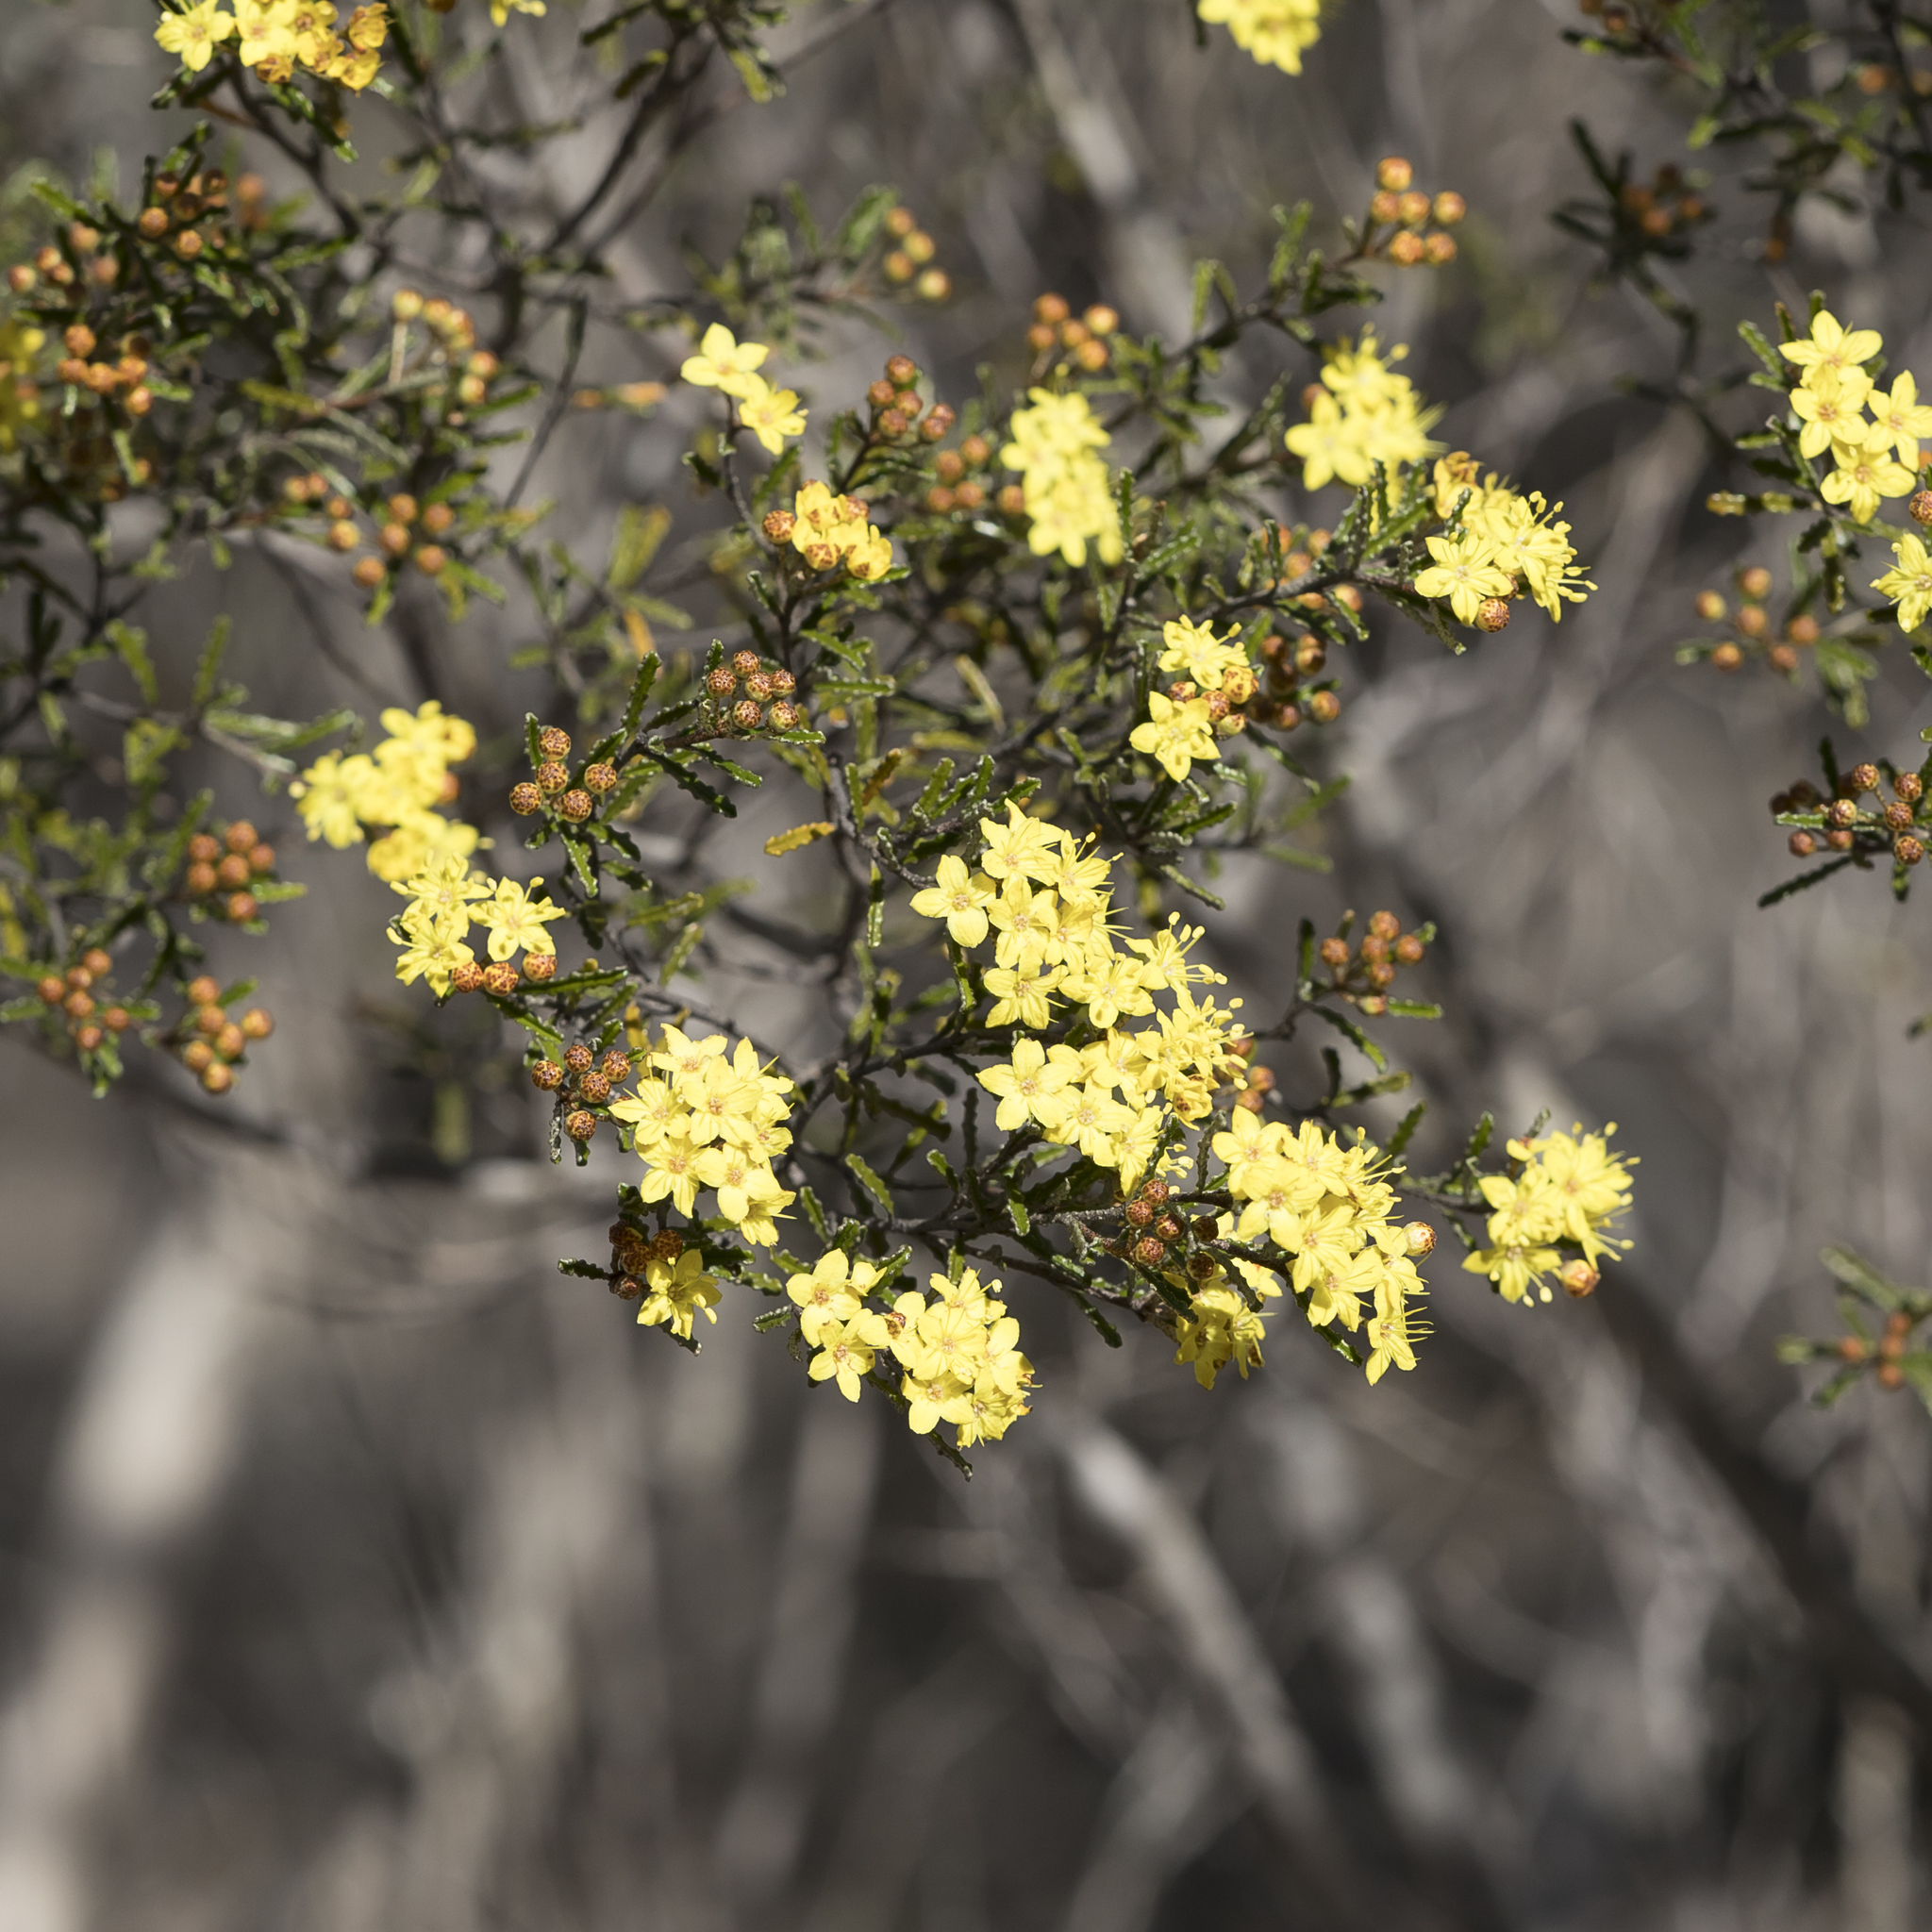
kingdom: Plantae
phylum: Tracheophyta
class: Magnoliopsida
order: Sapindales
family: Rutaceae
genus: Phebalium
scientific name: Phebalium bullatum
